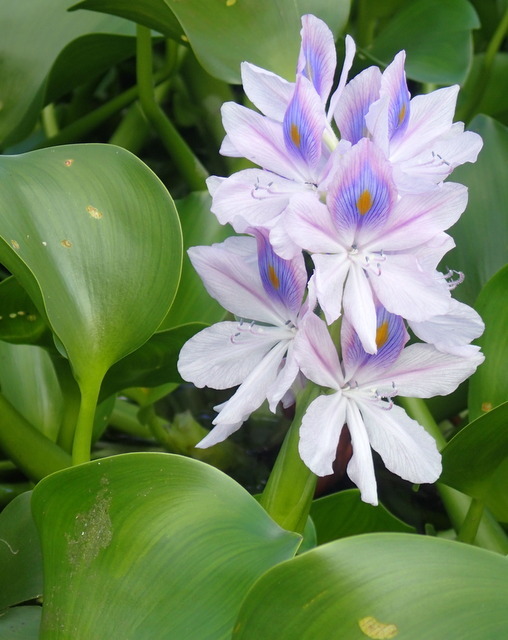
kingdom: Plantae
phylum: Tracheophyta
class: Liliopsida
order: Commelinales
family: Pontederiaceae
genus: Pontederia
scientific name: Pontederia crassipes
